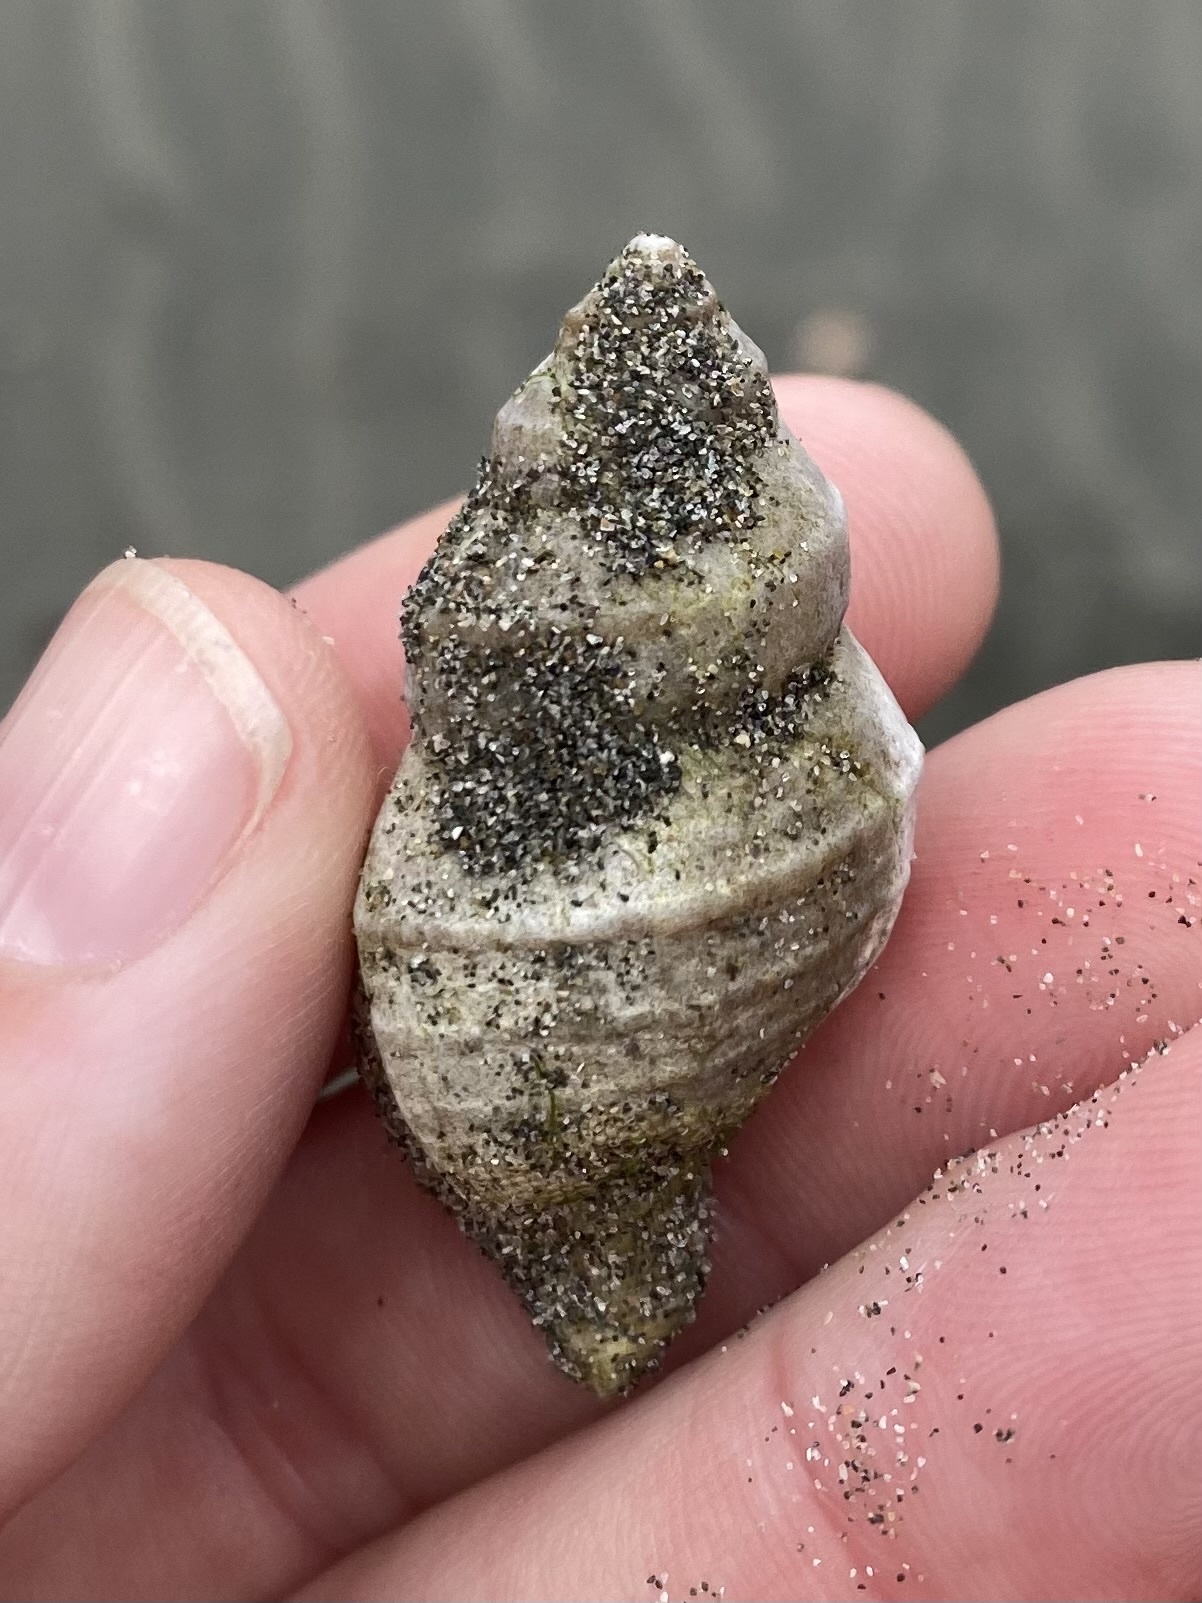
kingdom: Animalia
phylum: Mollusca
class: Gastropoda
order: Neogastropoda
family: Muricidae
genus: Nucella
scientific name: Nucella lamellosa
